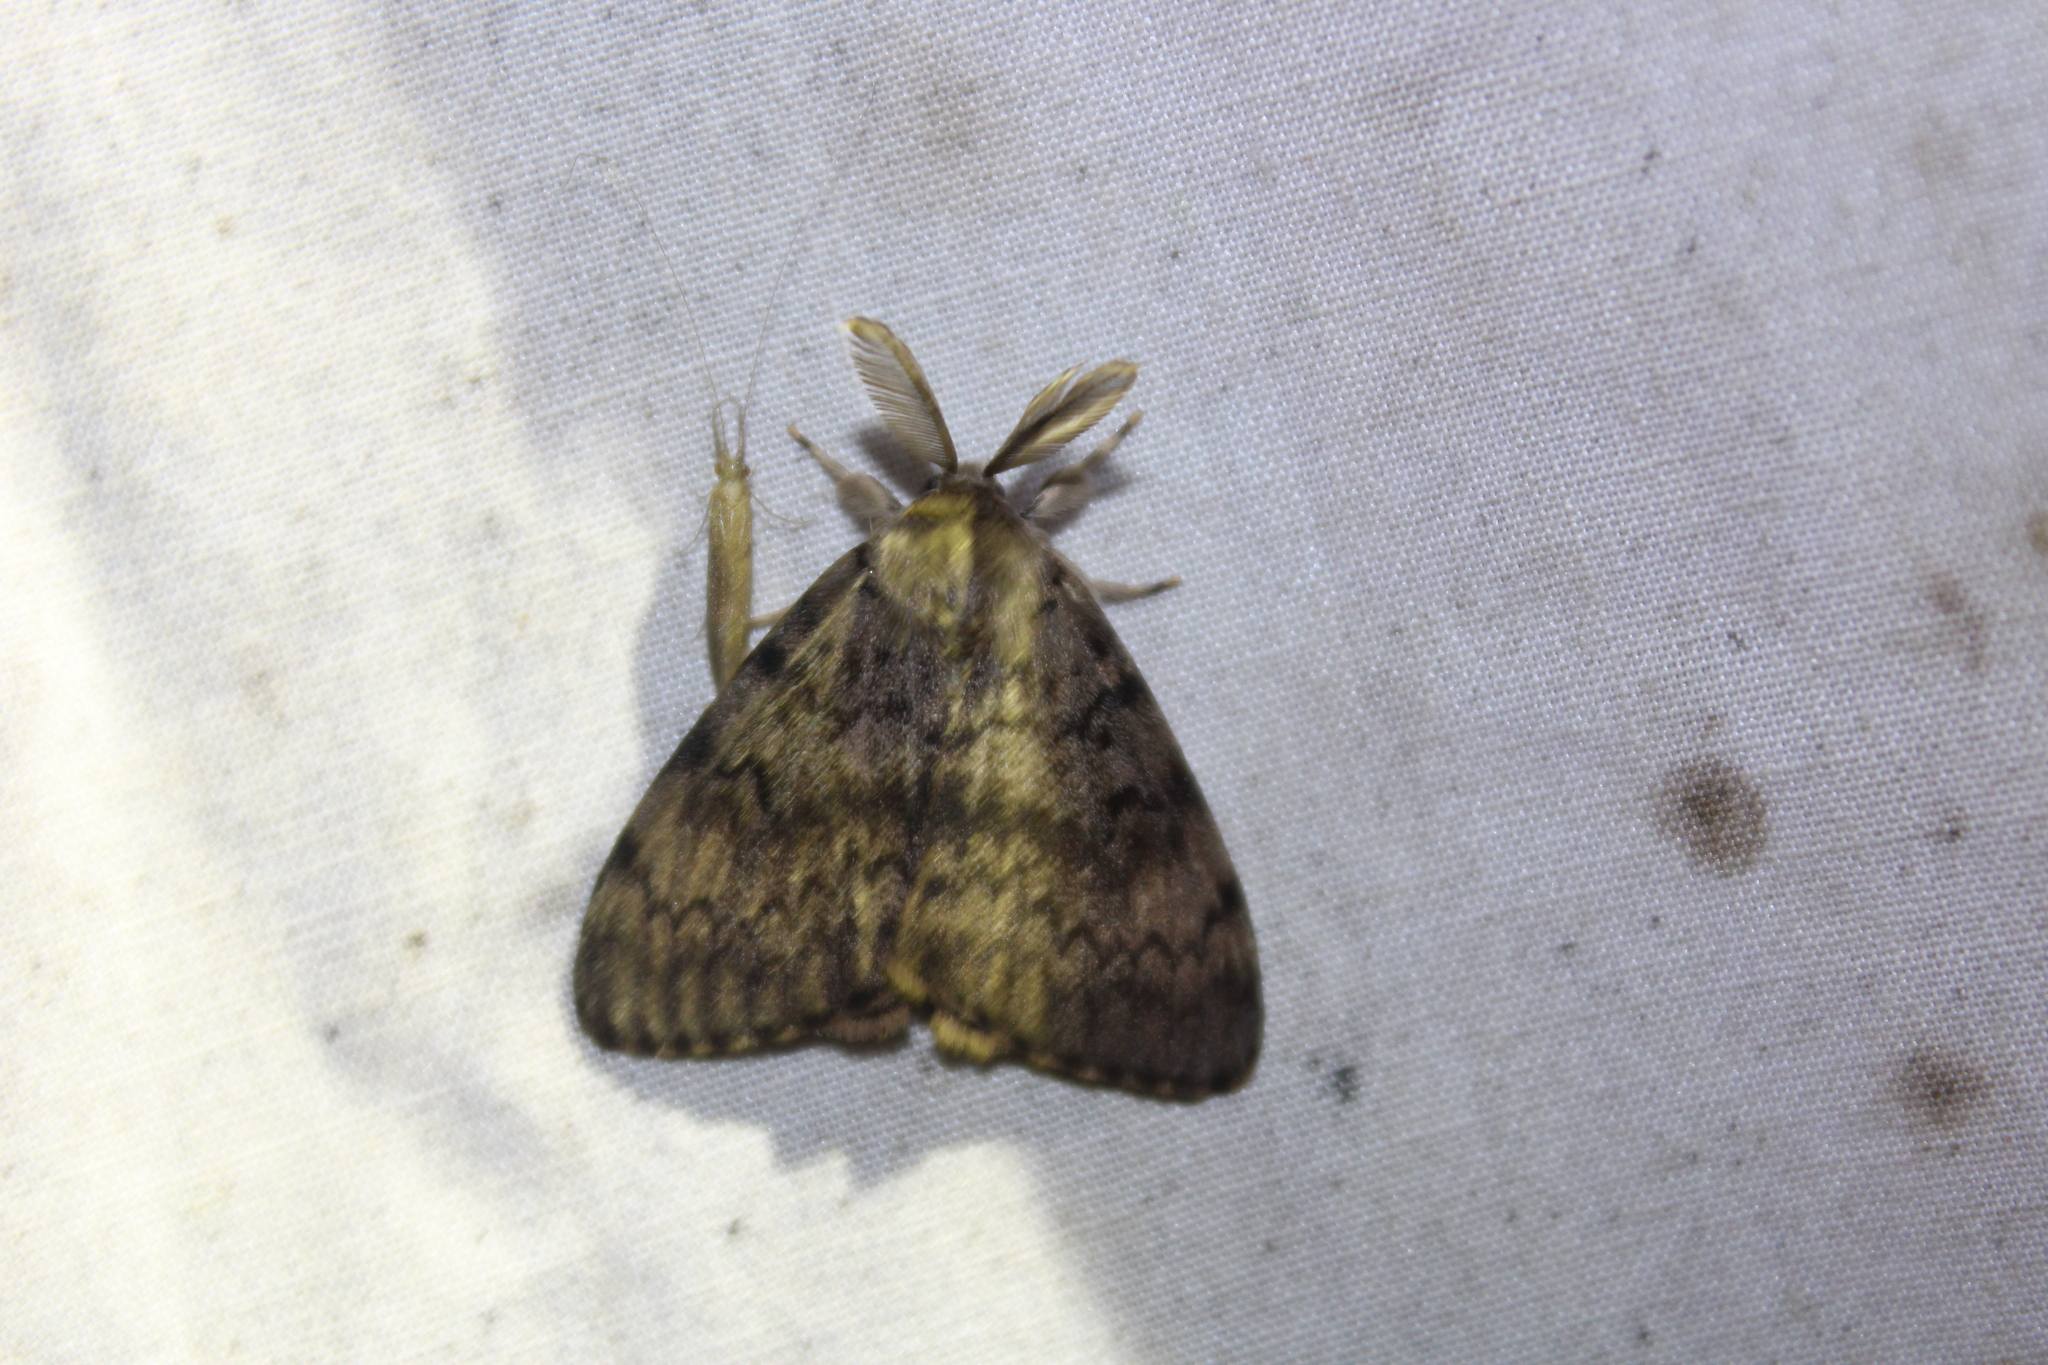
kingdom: Animalia
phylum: Arthropoda
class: Insecta
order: Lepidoptera
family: Erebidae
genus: Lymantria
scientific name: Lymantria dispar
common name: Gypsy moth
